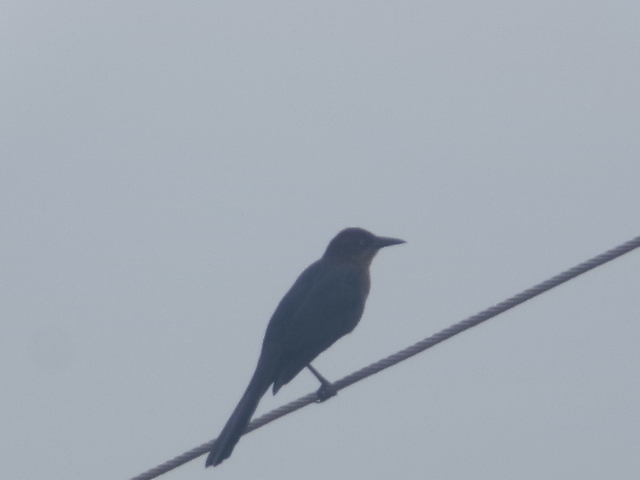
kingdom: Animalia
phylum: Chordata
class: Aves
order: Passeriformes
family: Icteridae
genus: Quiscalus
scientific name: Quiscalus mexicanus
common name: Great-tailed grackle
